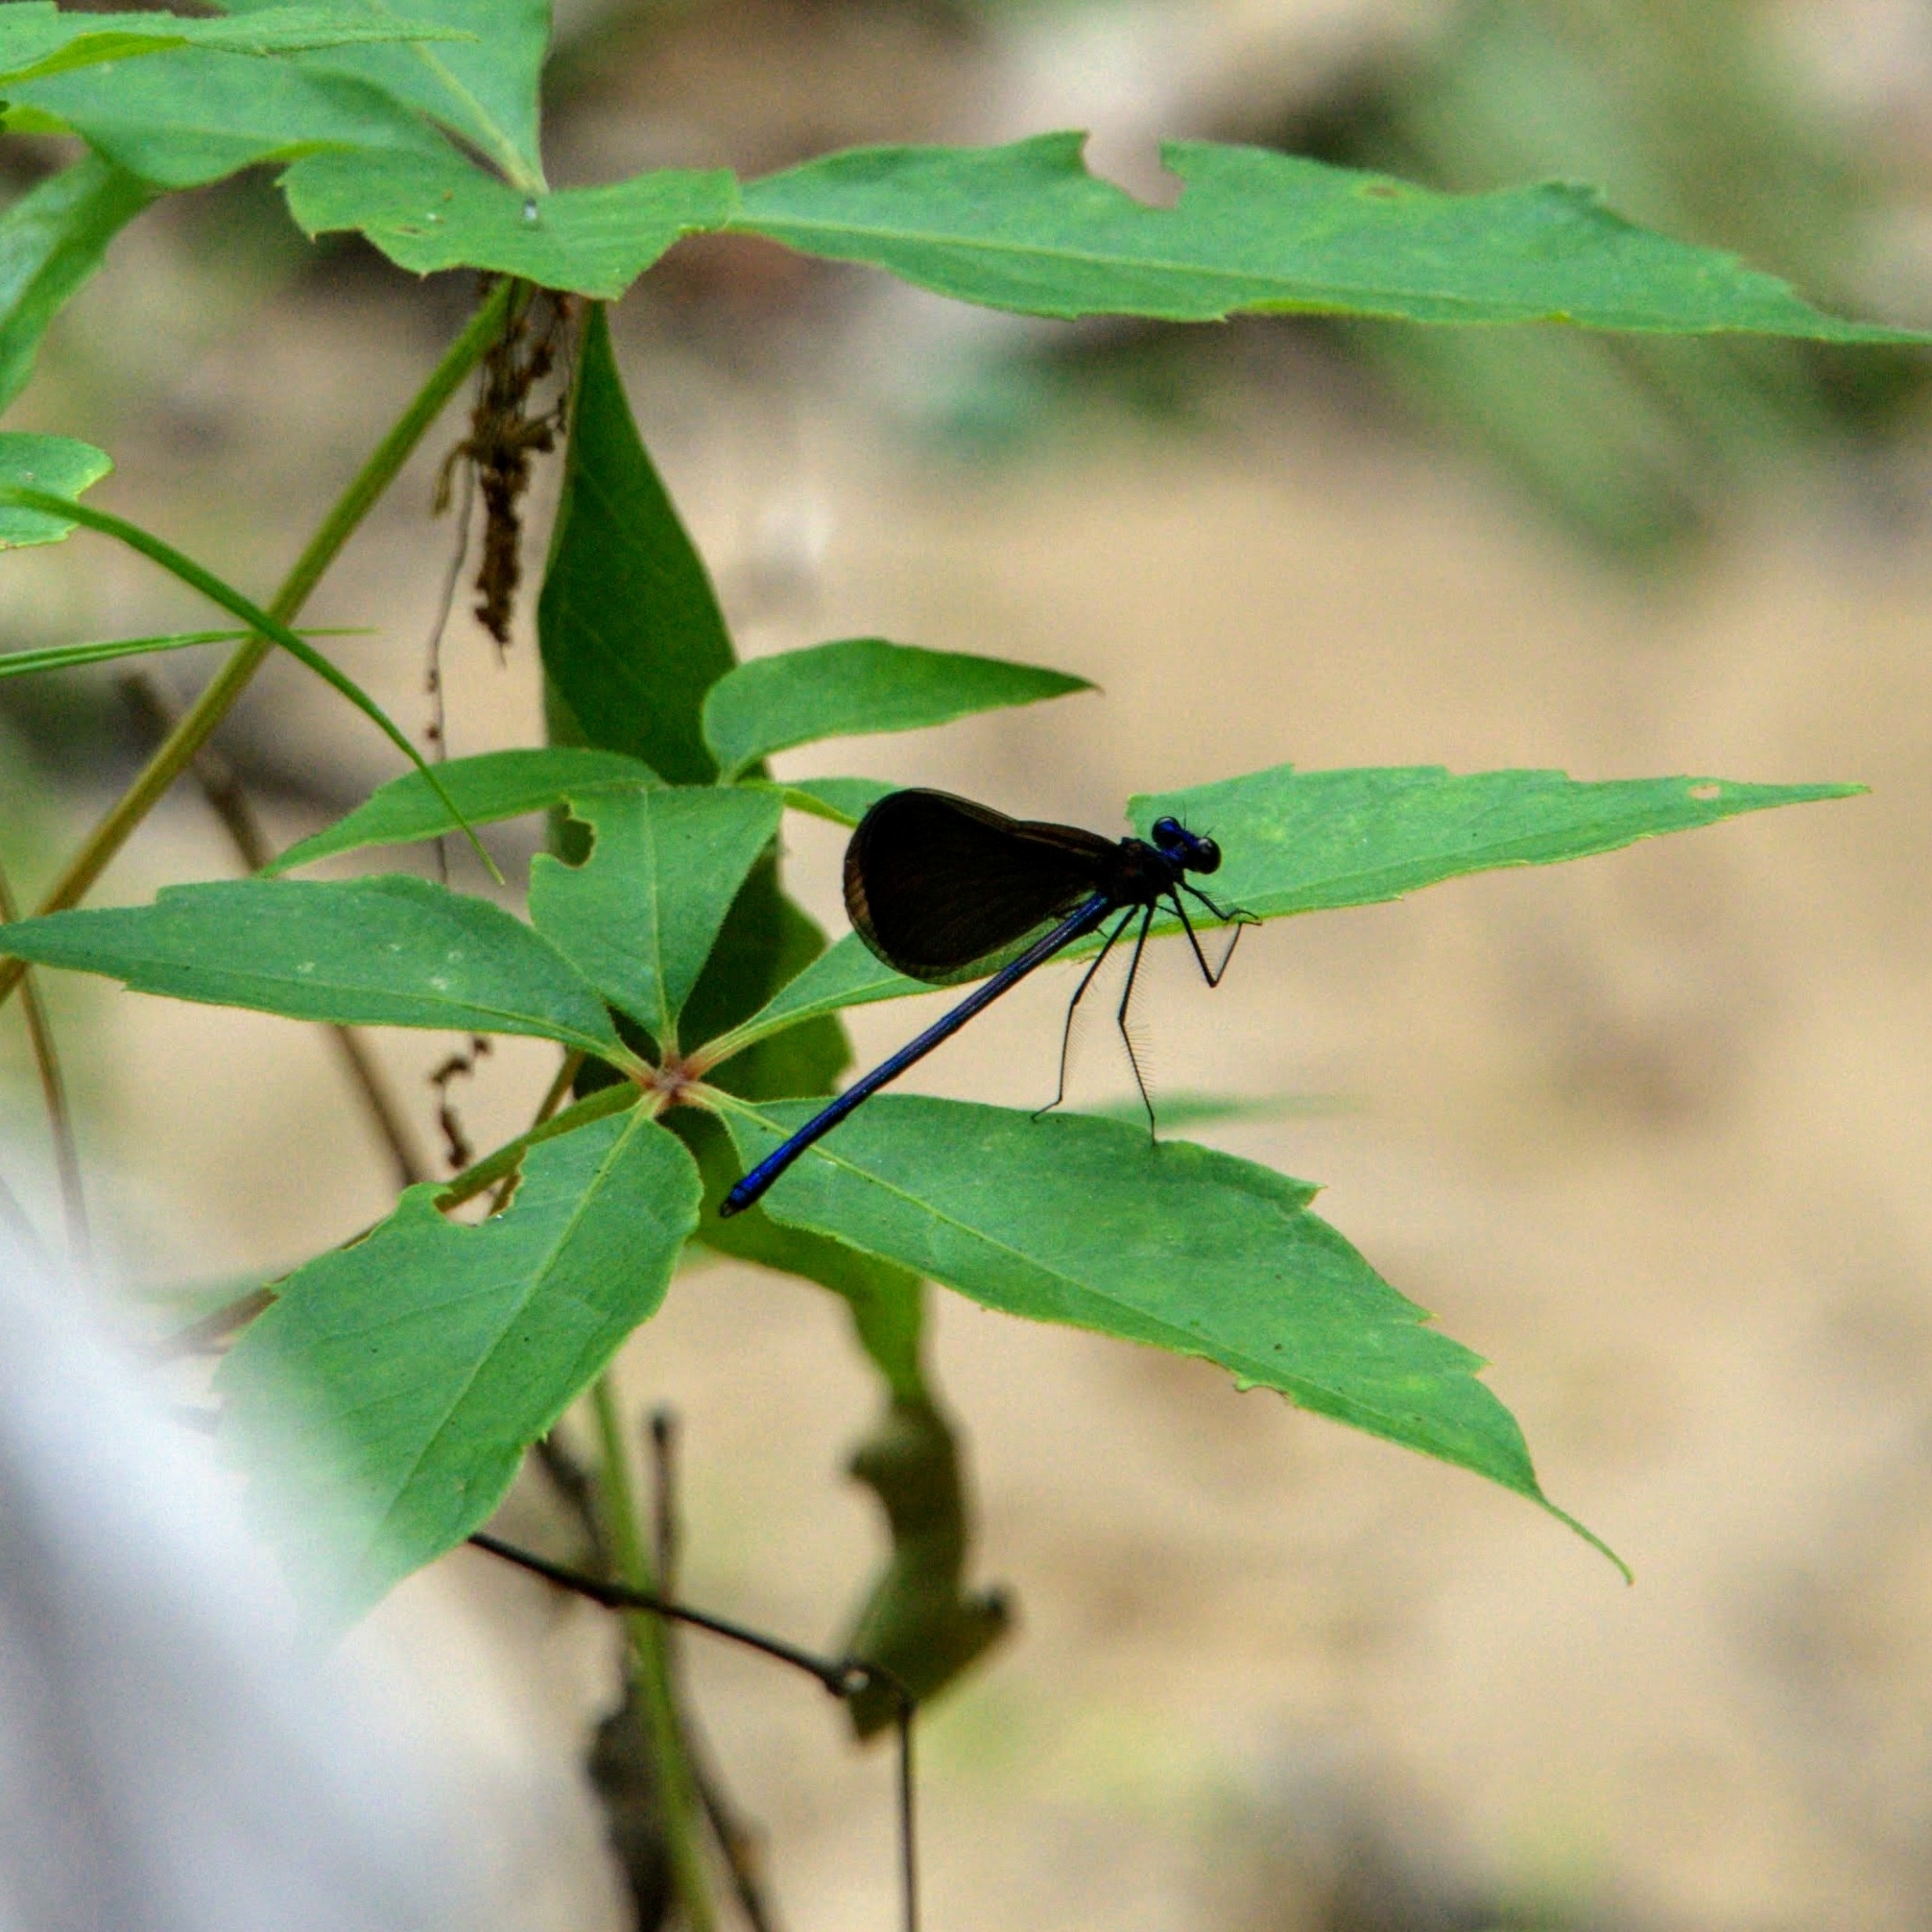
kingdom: Animalia
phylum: Arthropoda
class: Insecta
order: Odonata
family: Calopterygidae
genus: Calopteryx
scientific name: Calopteryx maculata
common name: Ebony jewelwing
